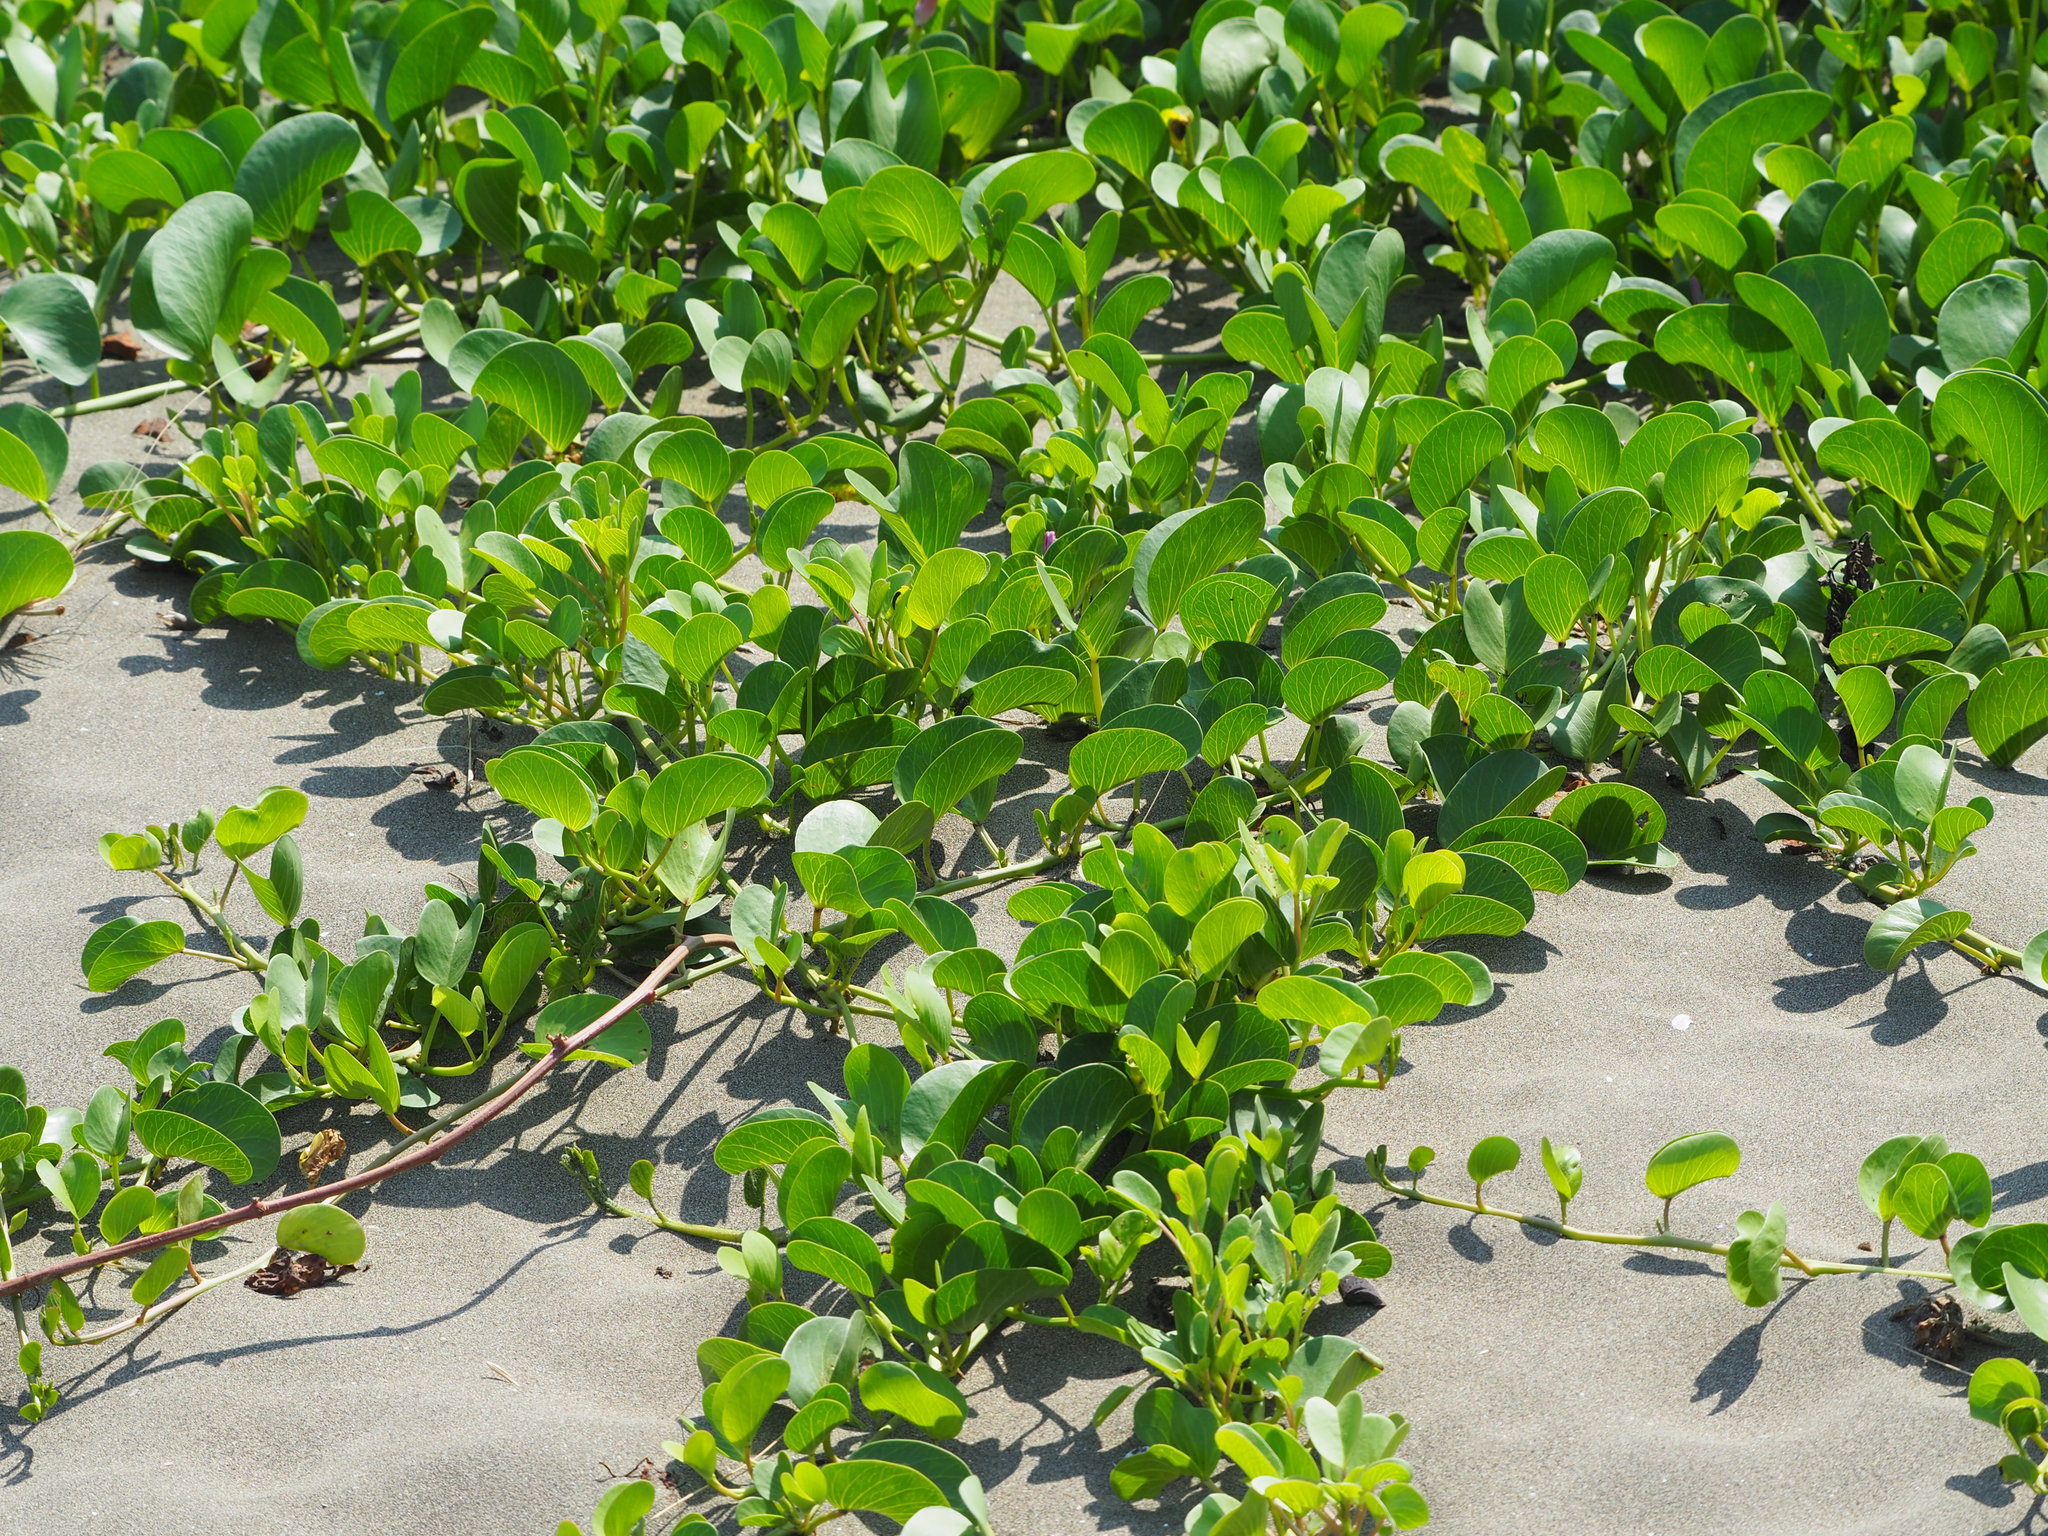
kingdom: Plantae
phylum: Tracheophyta
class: Magnoliopsida
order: Solanales
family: Convolvulaceae
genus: Ipomoea
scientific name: Ipomoea pes-caprae
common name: Beach morning glory
